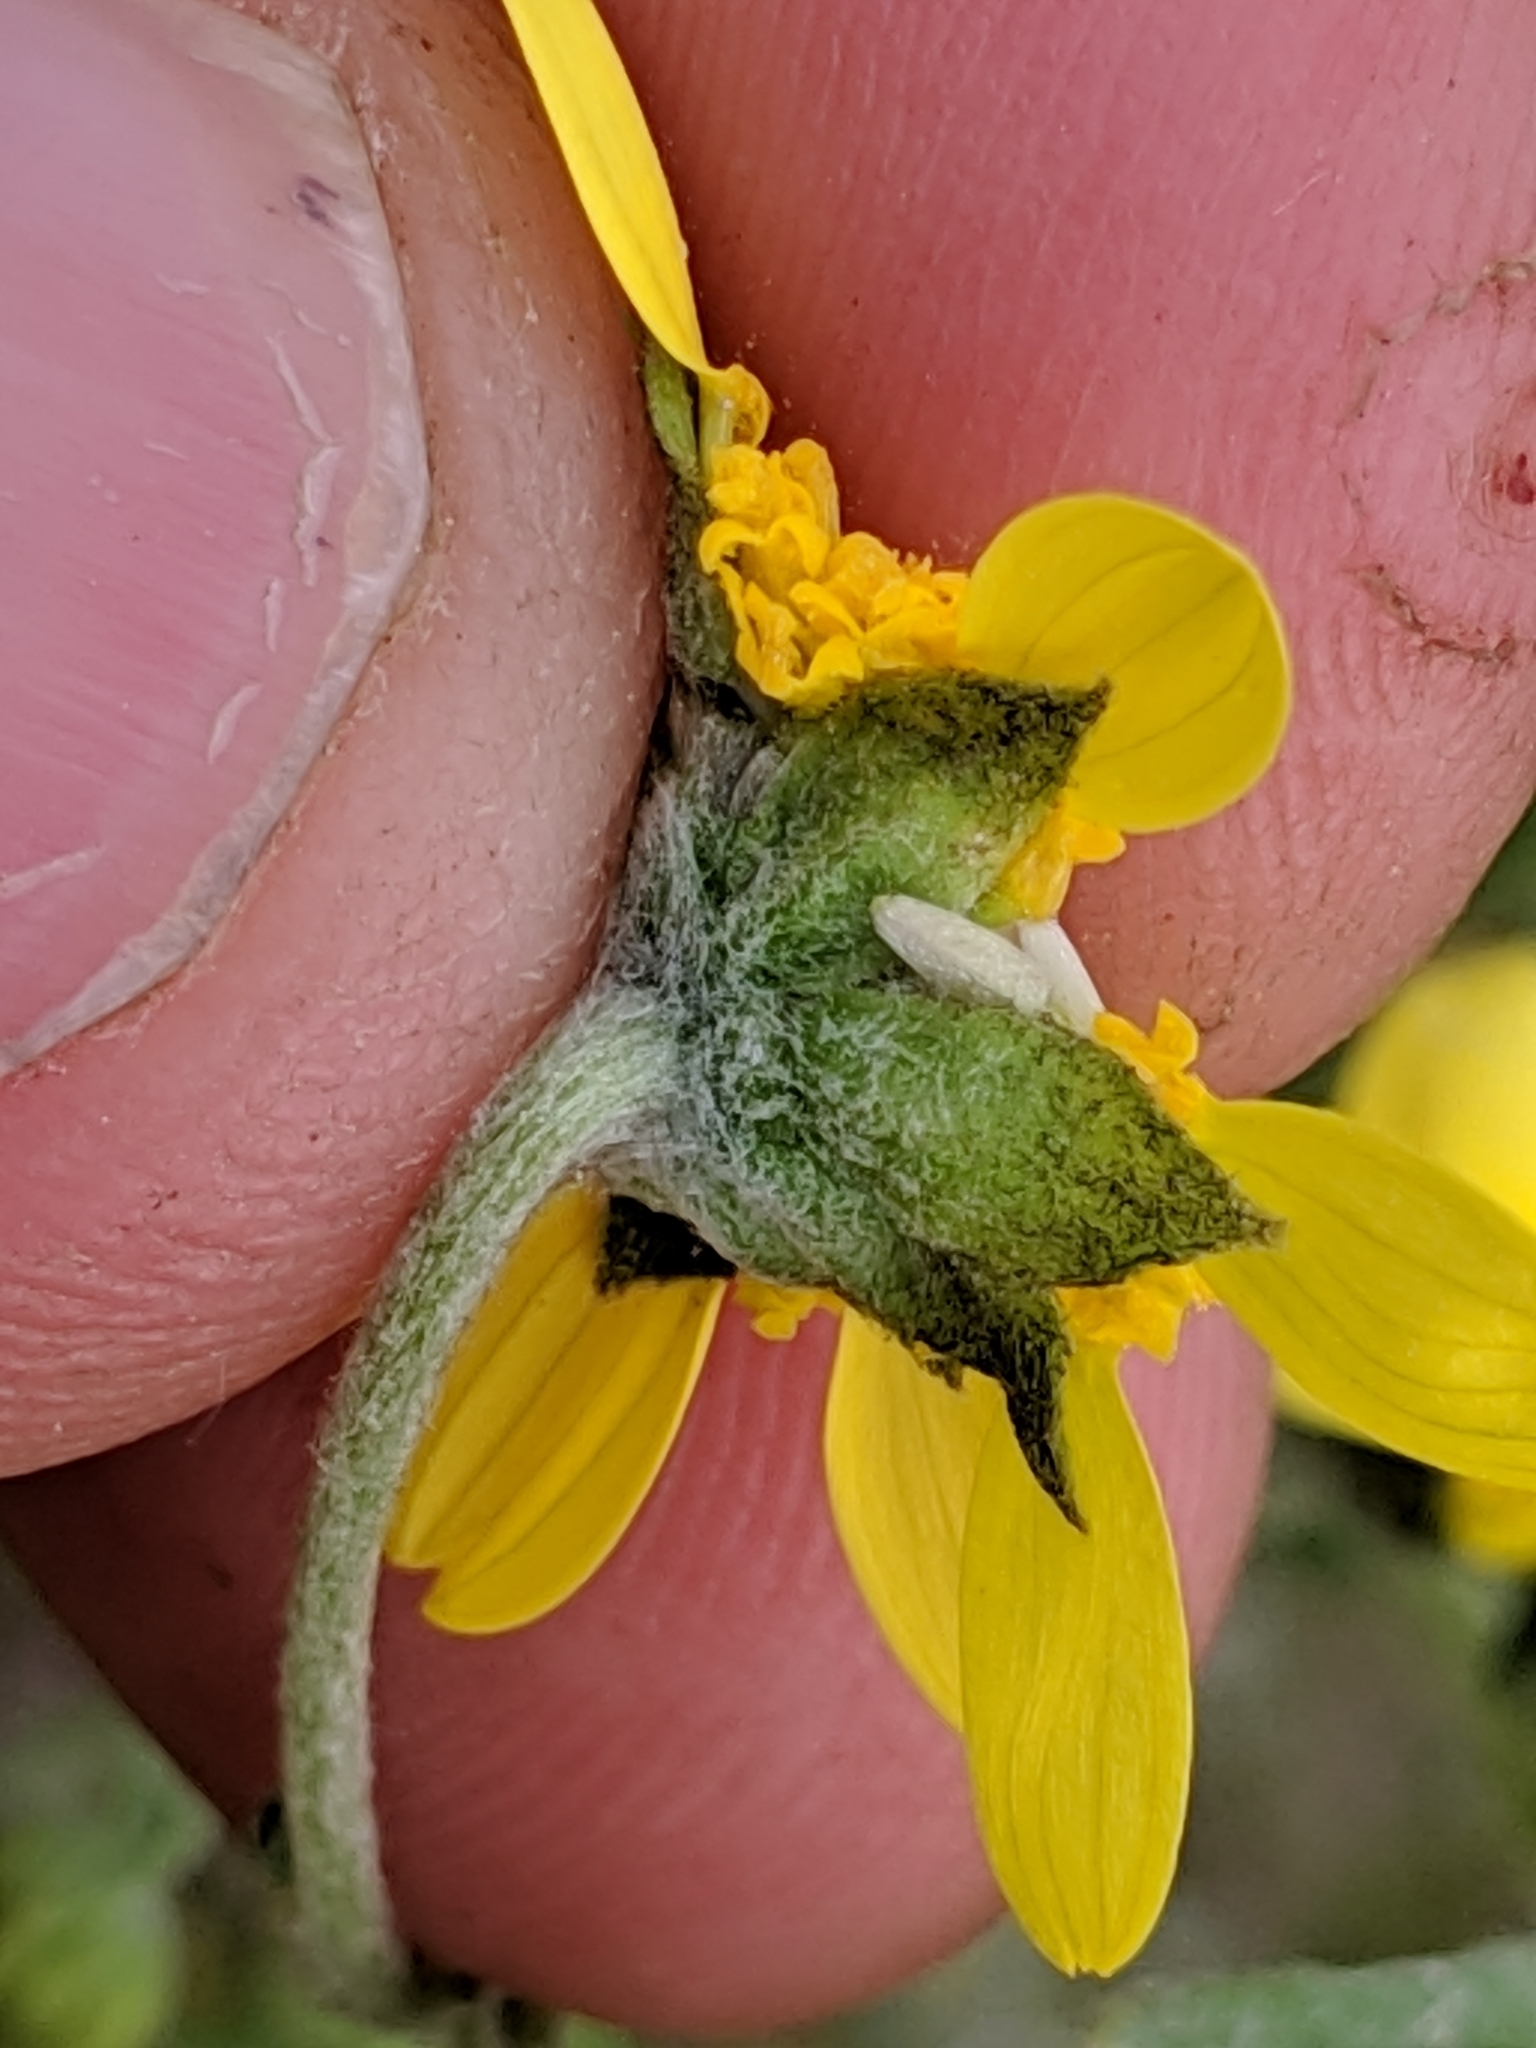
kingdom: Plantae
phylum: Tracheophyta
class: Magnoliopsida
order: Asterales
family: Asteraceae
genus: Monolopia
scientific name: Monolopia stricta
